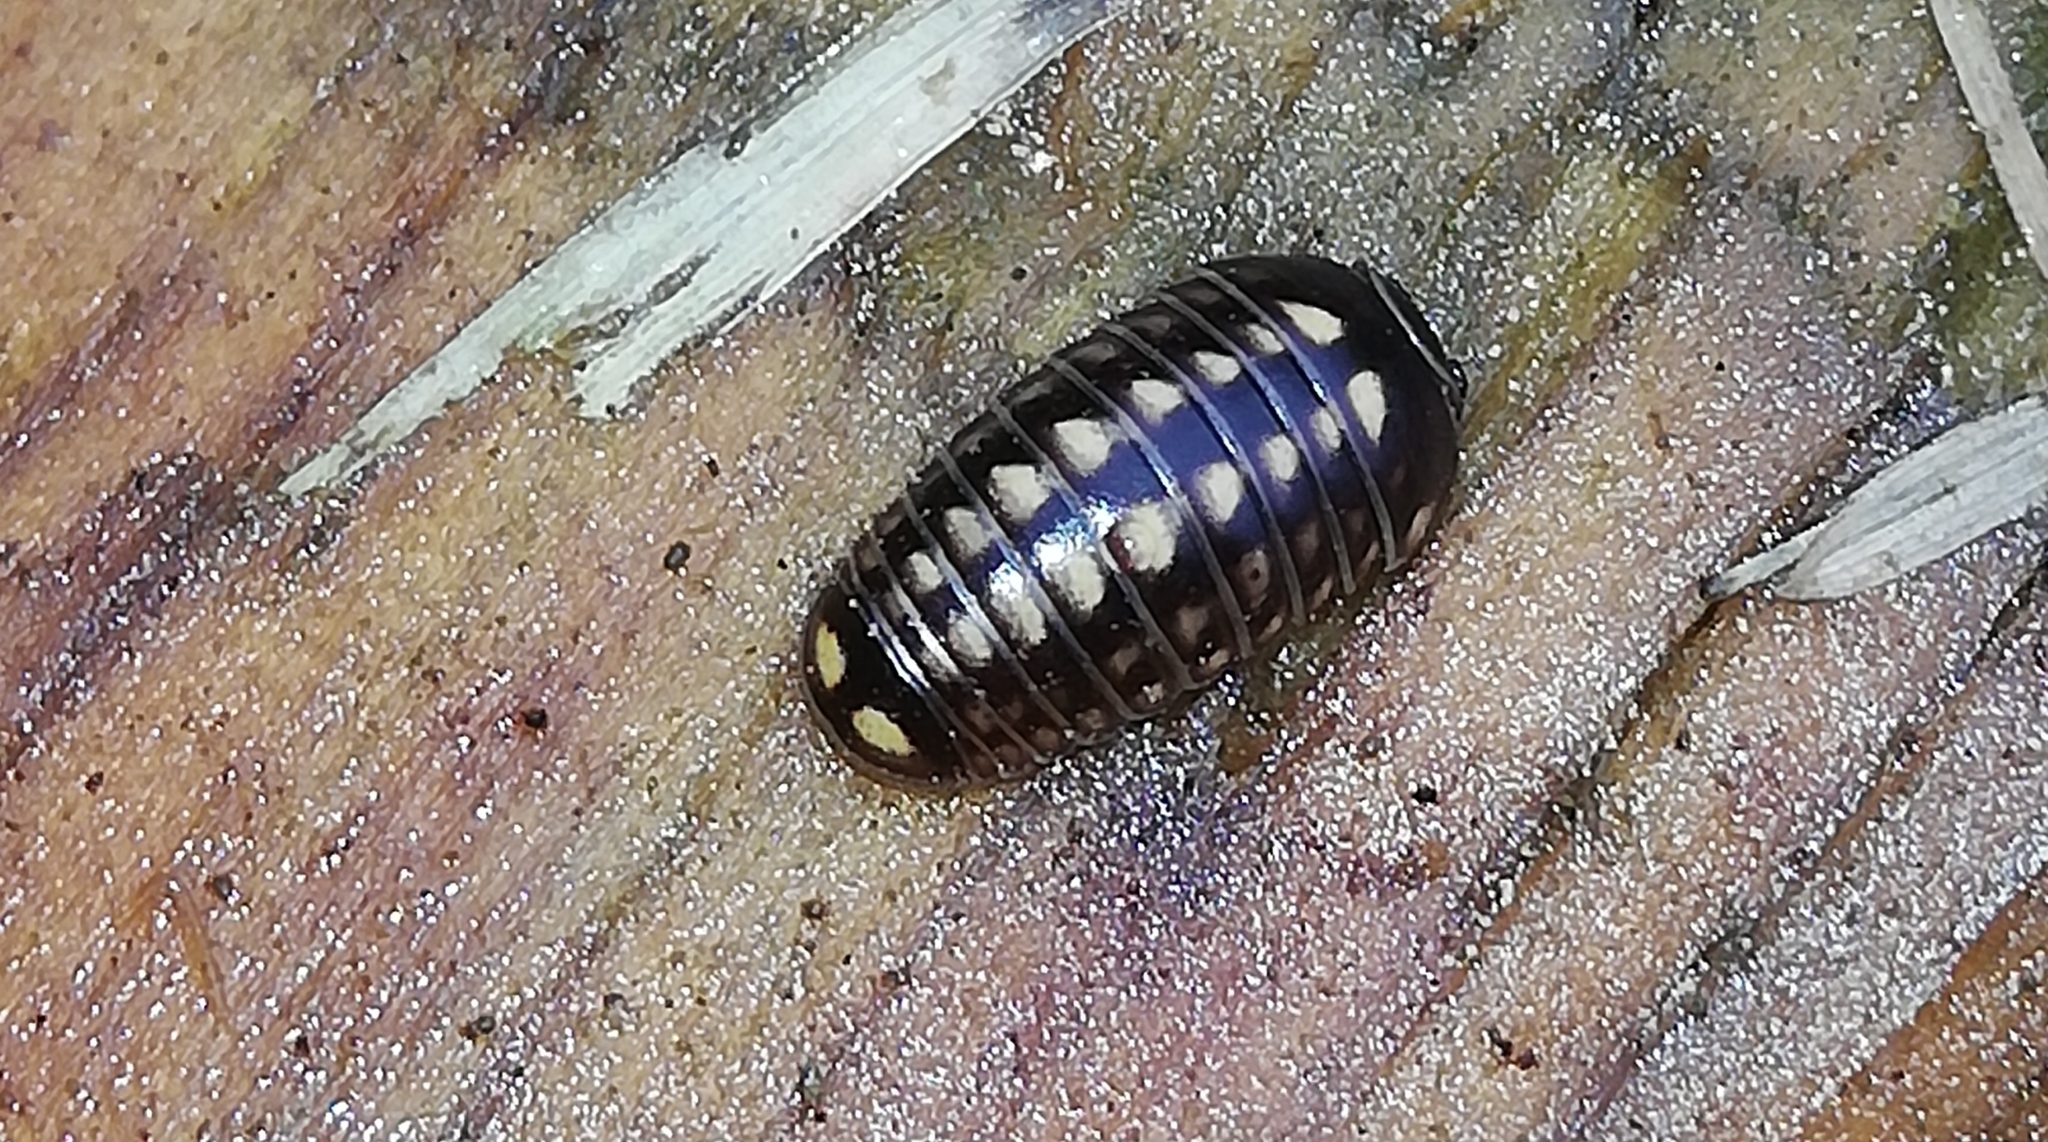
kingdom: Animalia
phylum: Arthropoda
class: Diplopoda
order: Glomerida
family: Glomeridae
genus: Glomeris
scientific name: Glomeris hexasticha
